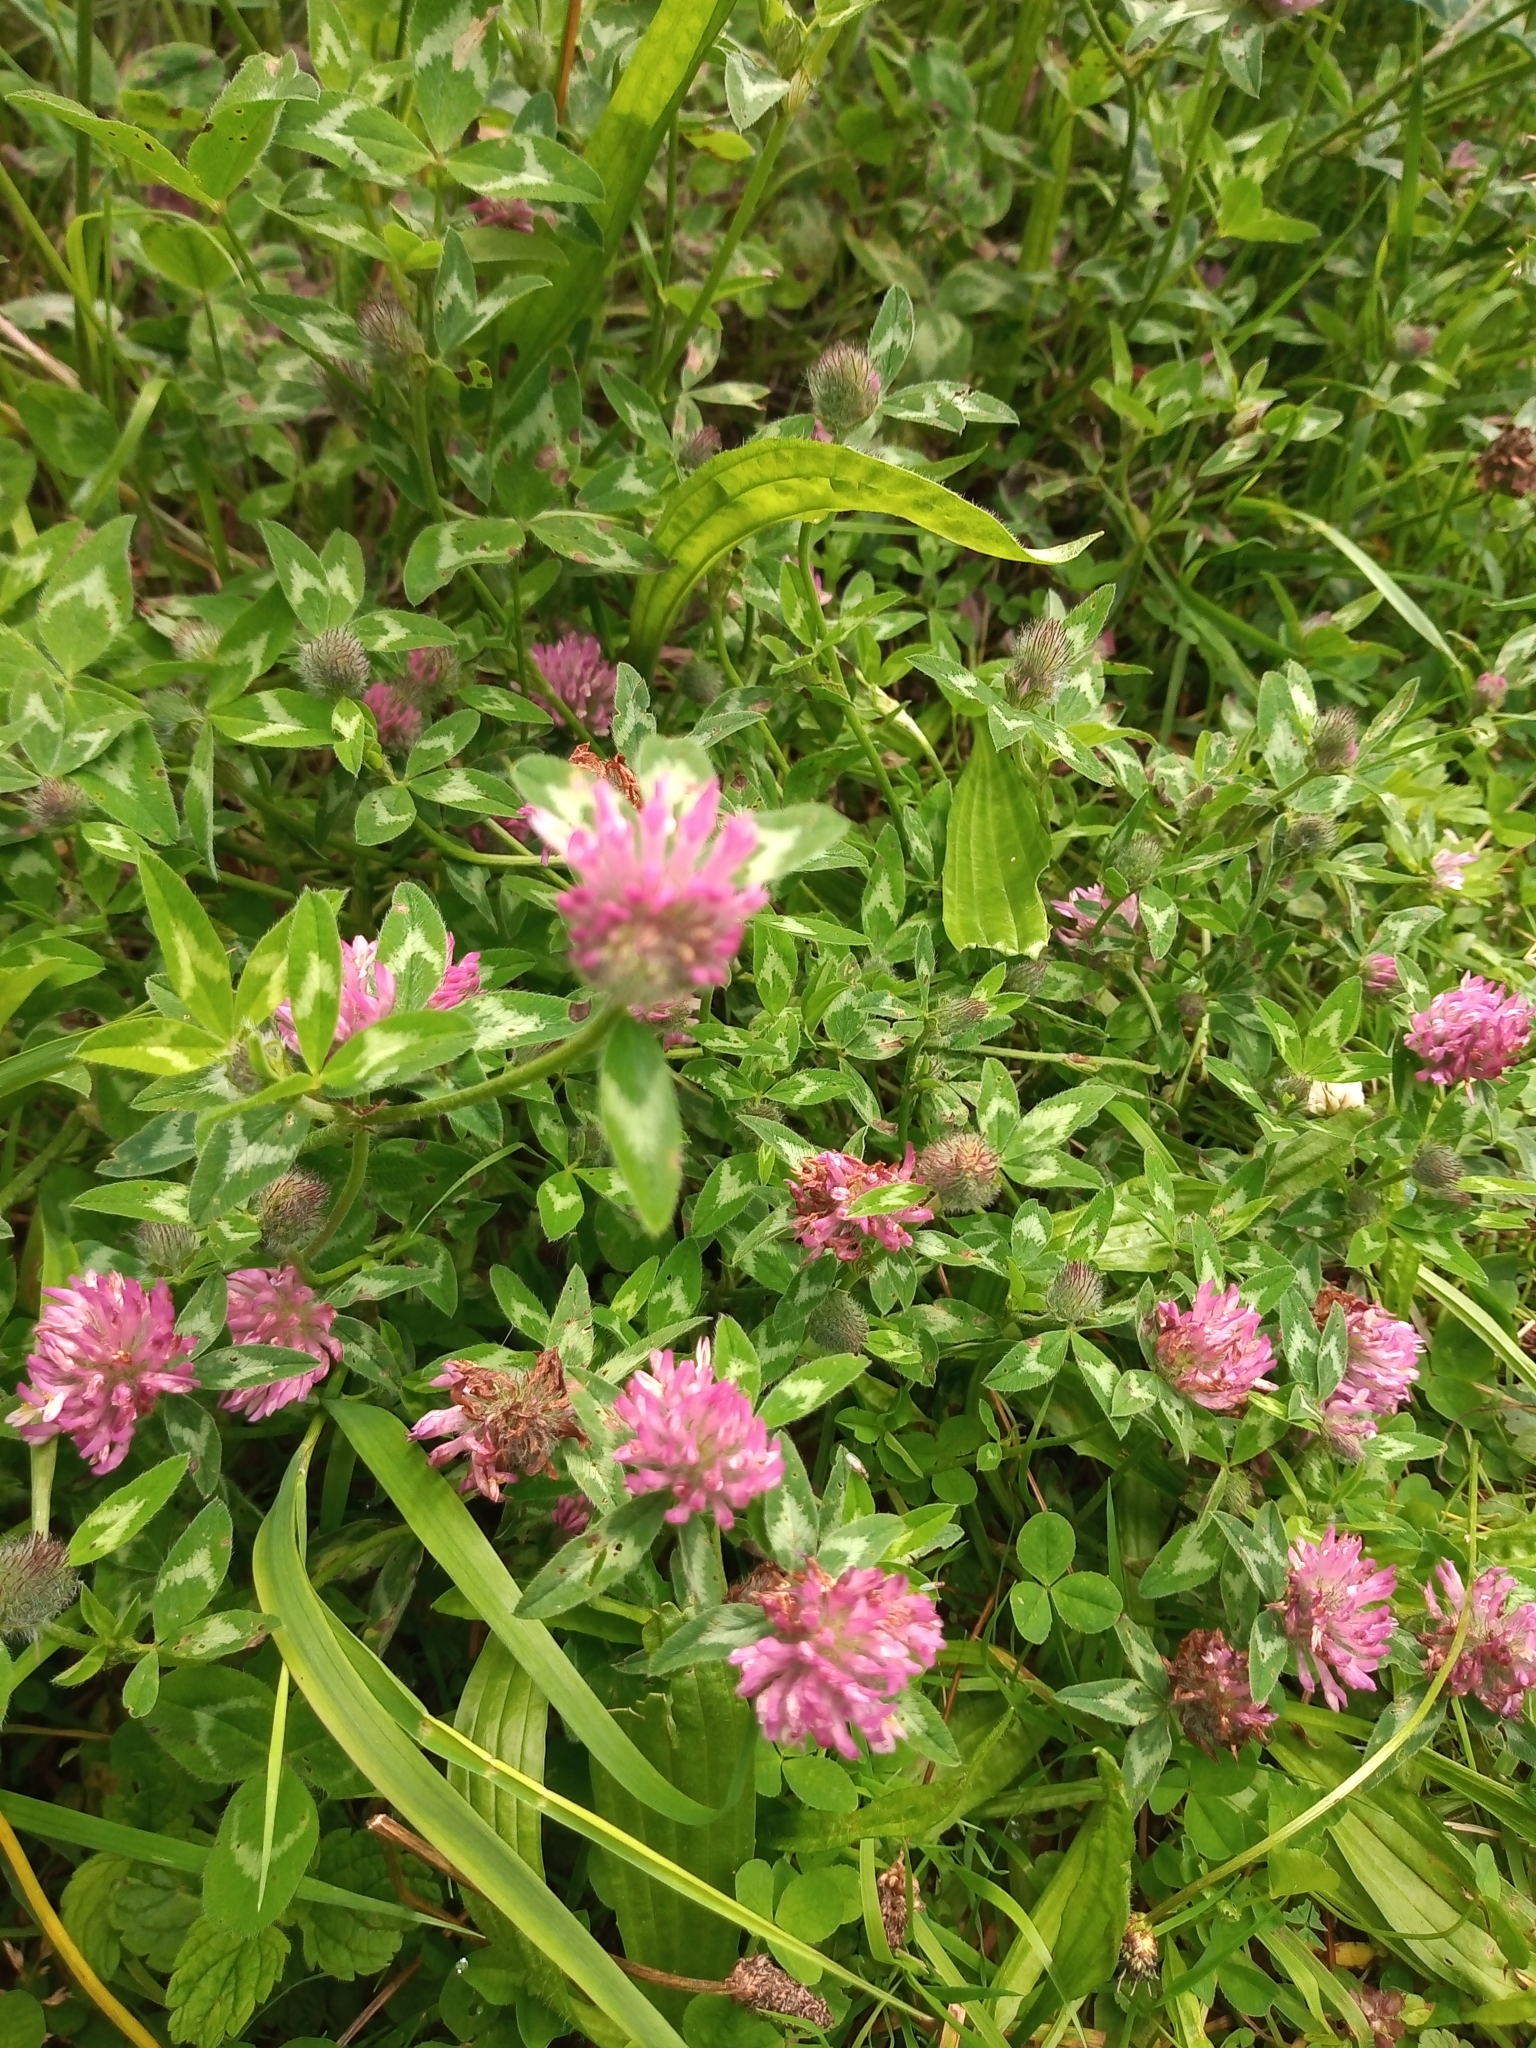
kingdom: Plantae
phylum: Tracheophyta
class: Magnoliopsida
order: Fabales
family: Fabaceae
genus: Trifolium
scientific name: Trifolium pratense
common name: Red clover
